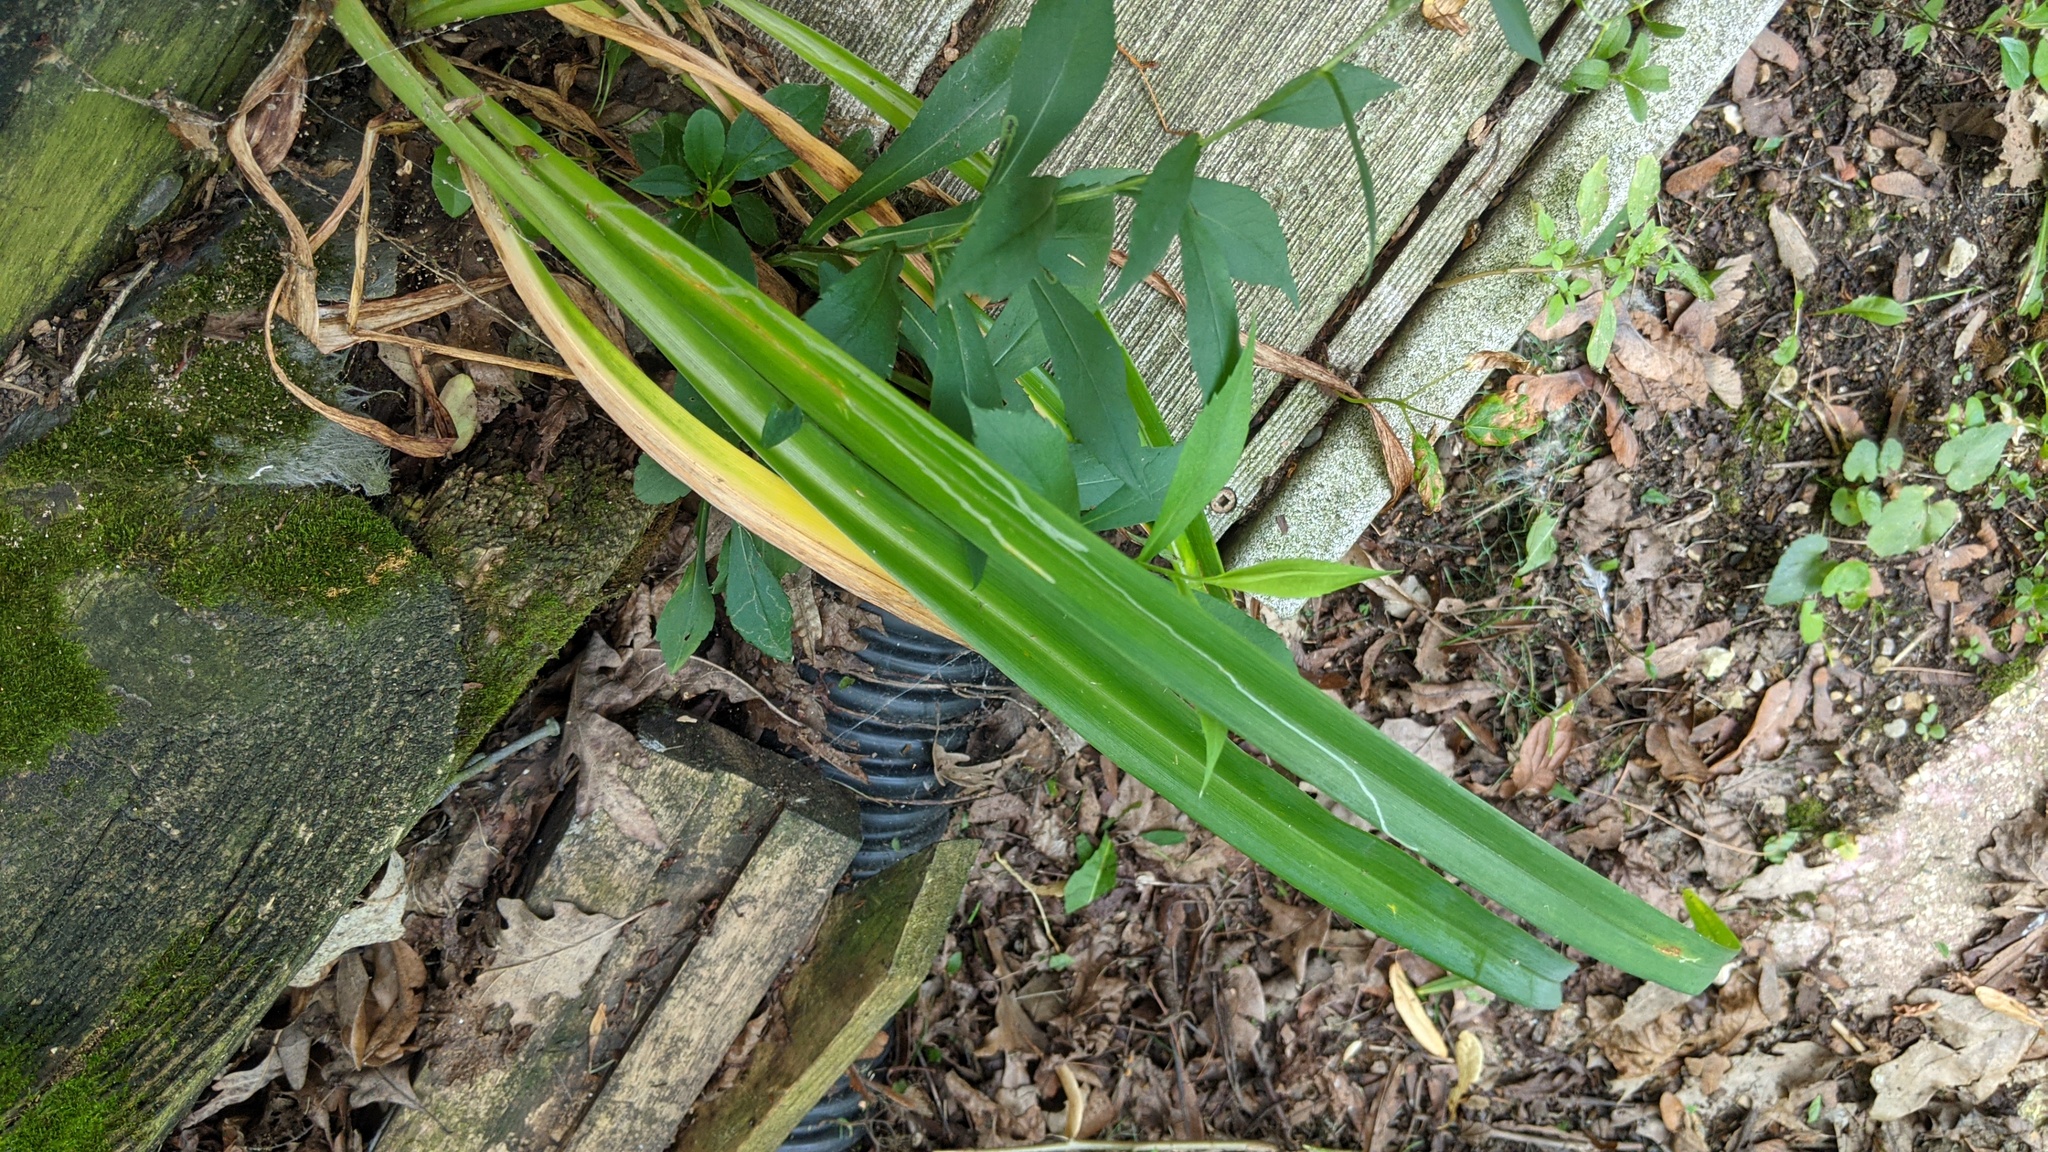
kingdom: Animalia
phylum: Arthropoda
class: Insecta
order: Diptera
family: Agromyzidae
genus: Ophiomyia
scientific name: Ophiomyia kwansonis
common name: Daylily leafminer
